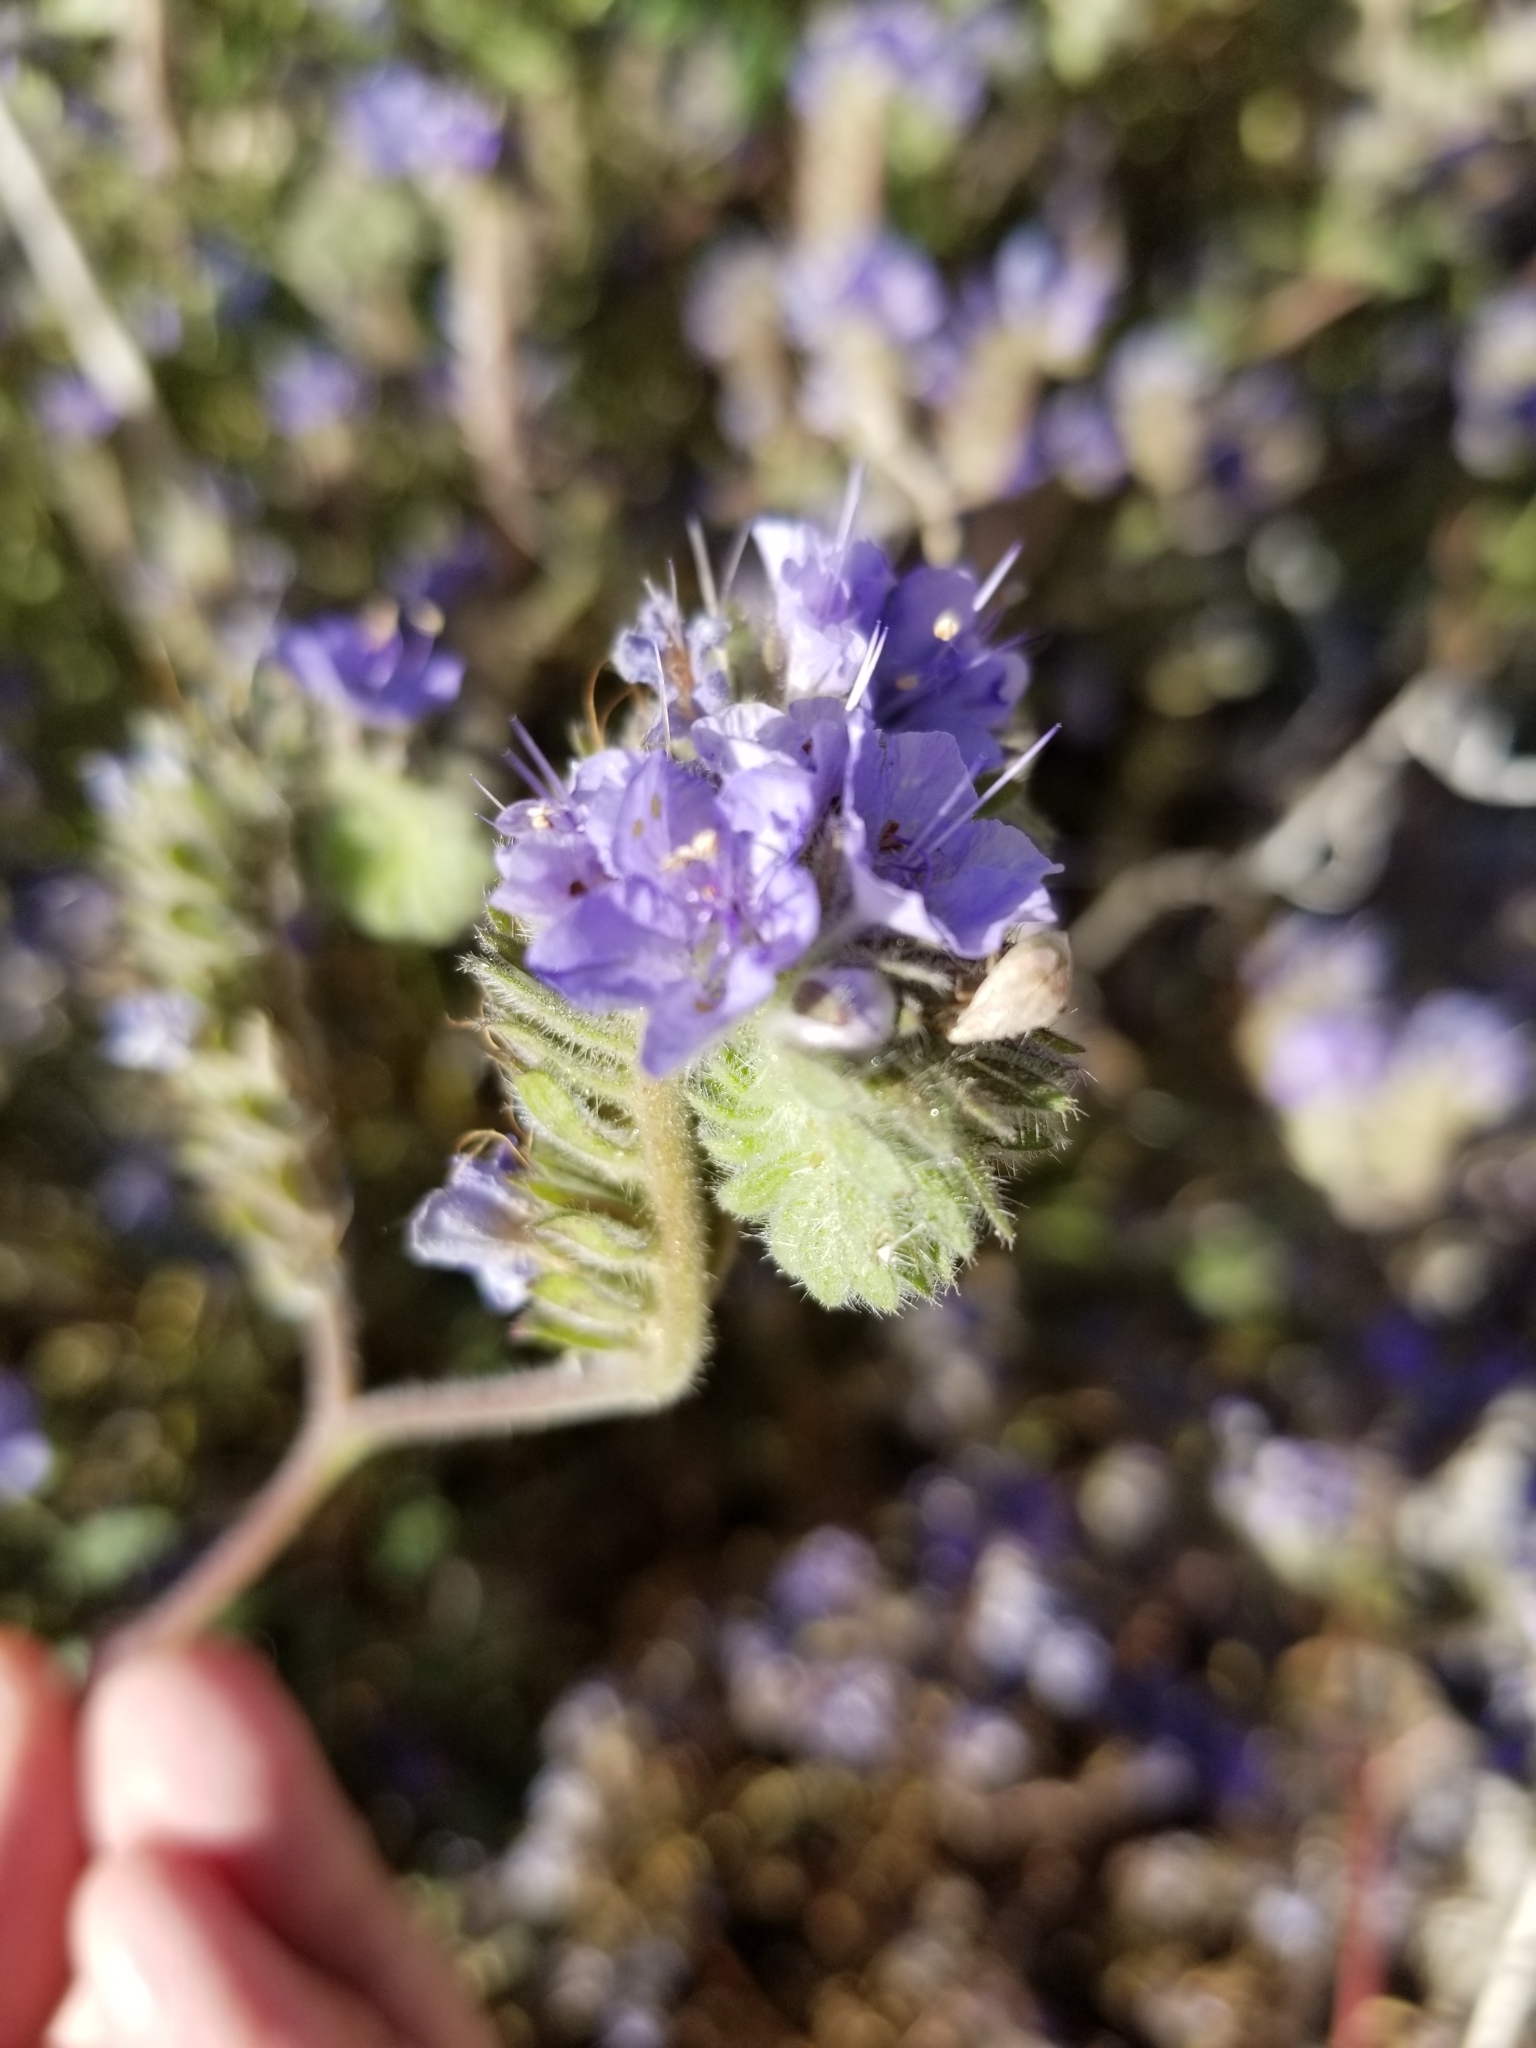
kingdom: Plantae
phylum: Tracheophyta
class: Magnoliopsida
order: Boraginales
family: Hydrophyllaceae
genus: Phacelia
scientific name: Phacelia distans
